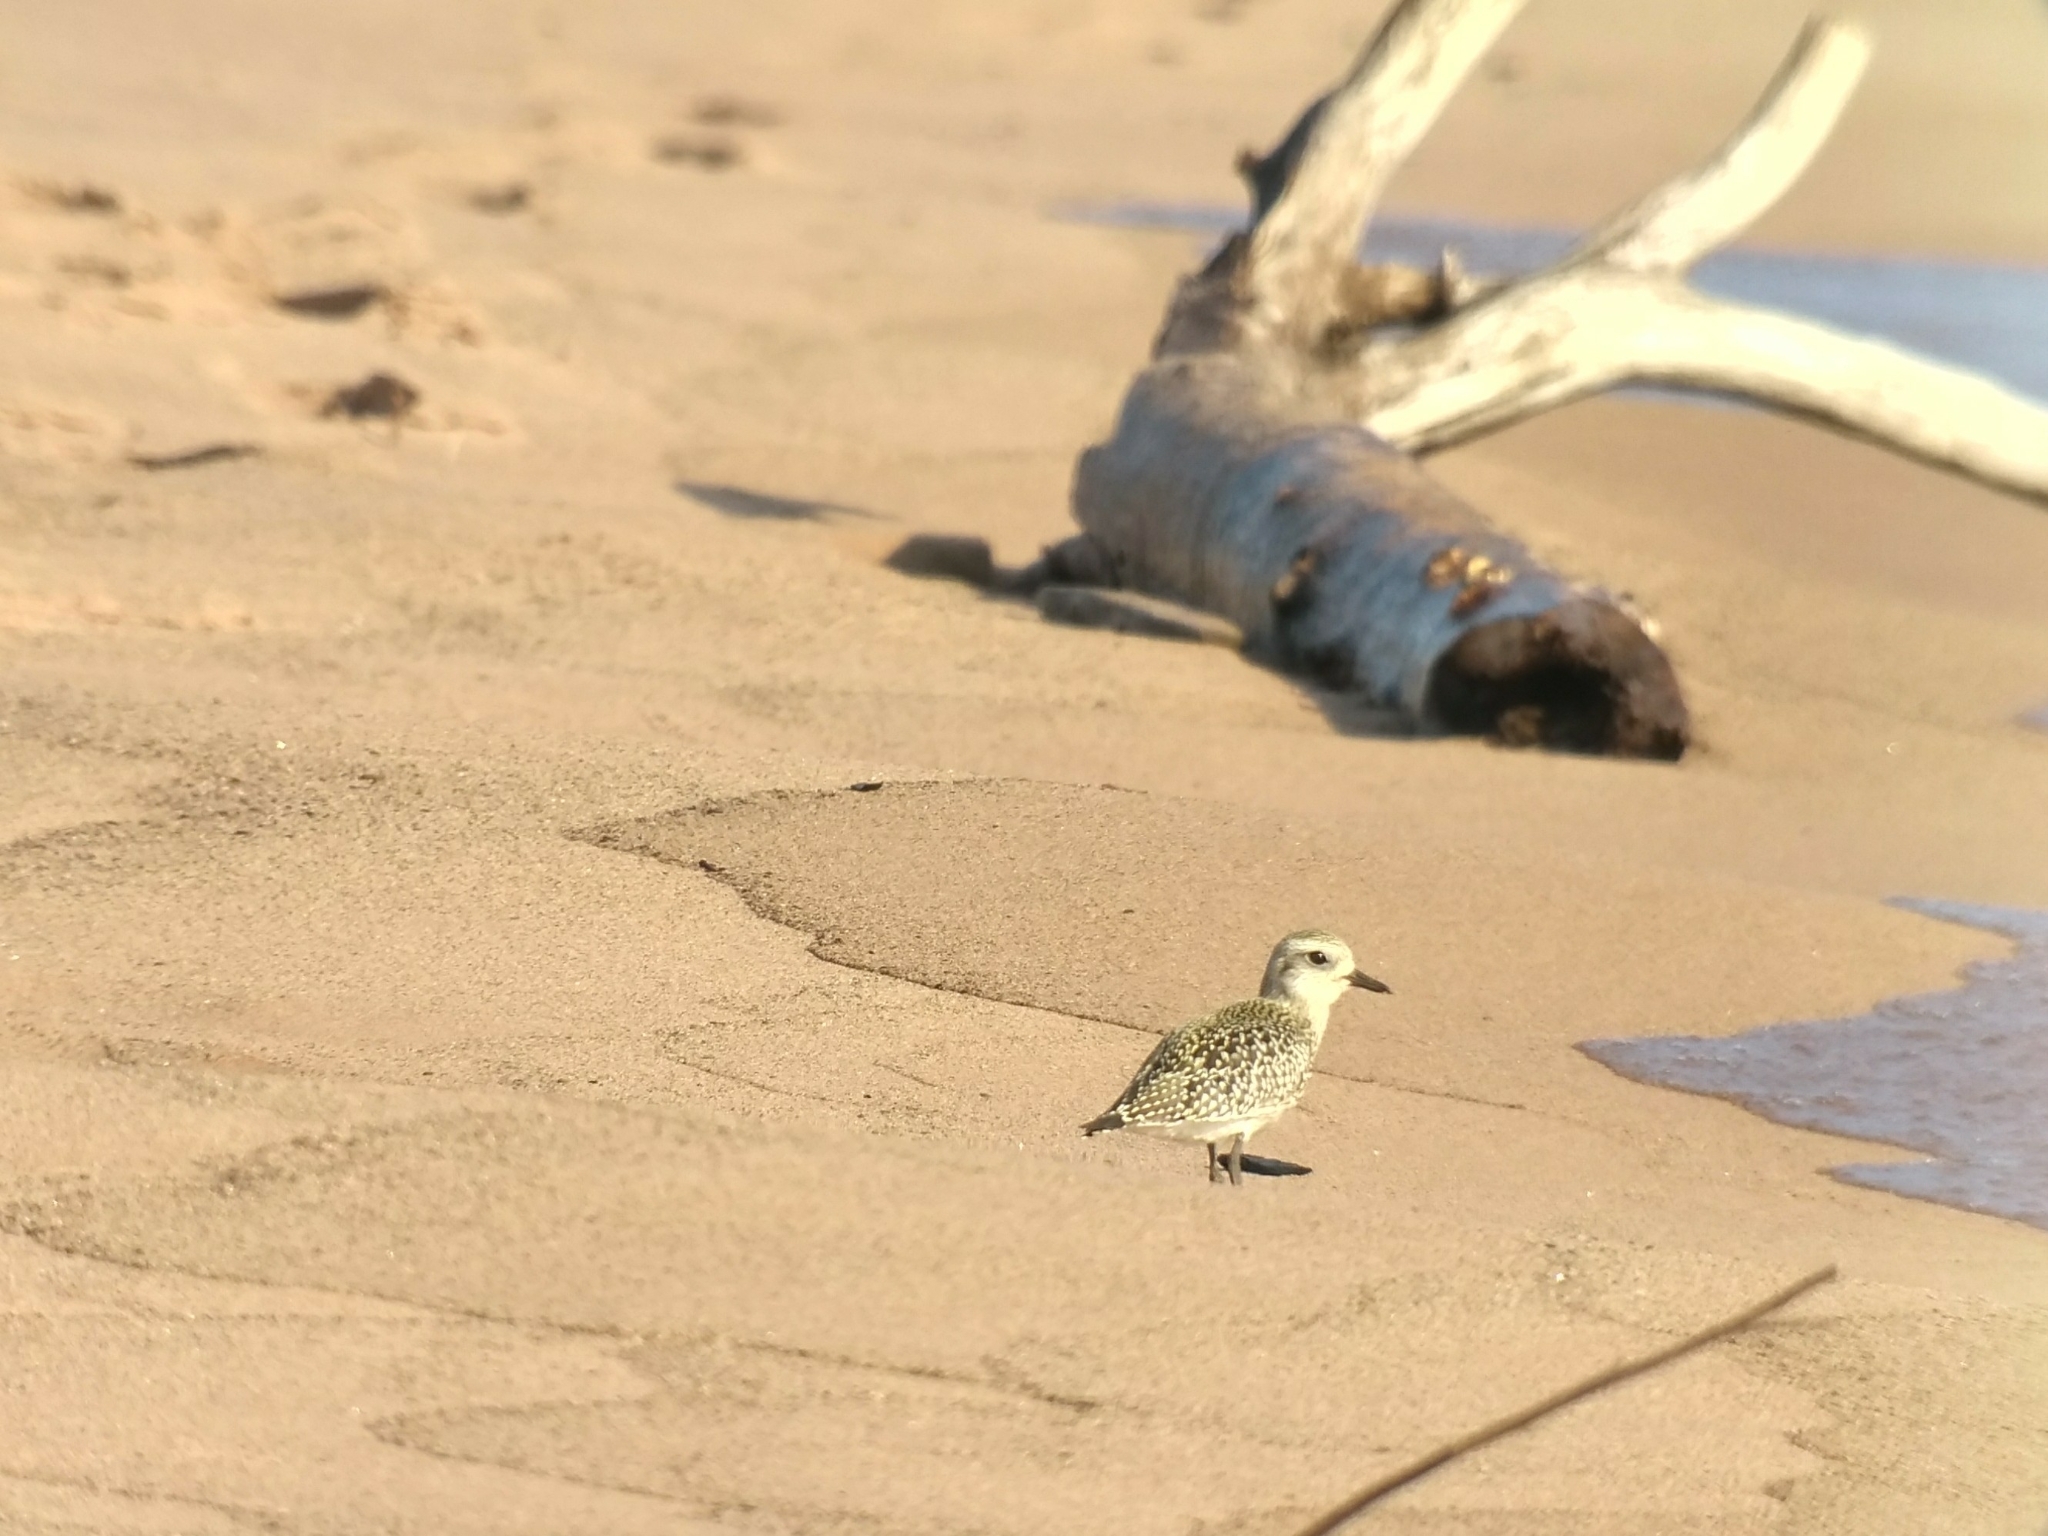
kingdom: Animalia
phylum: Chordata
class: Aves
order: Charadriiformes
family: Charadriidae
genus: Pluvialis
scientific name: Pluvialis dominica
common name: American golden plover
